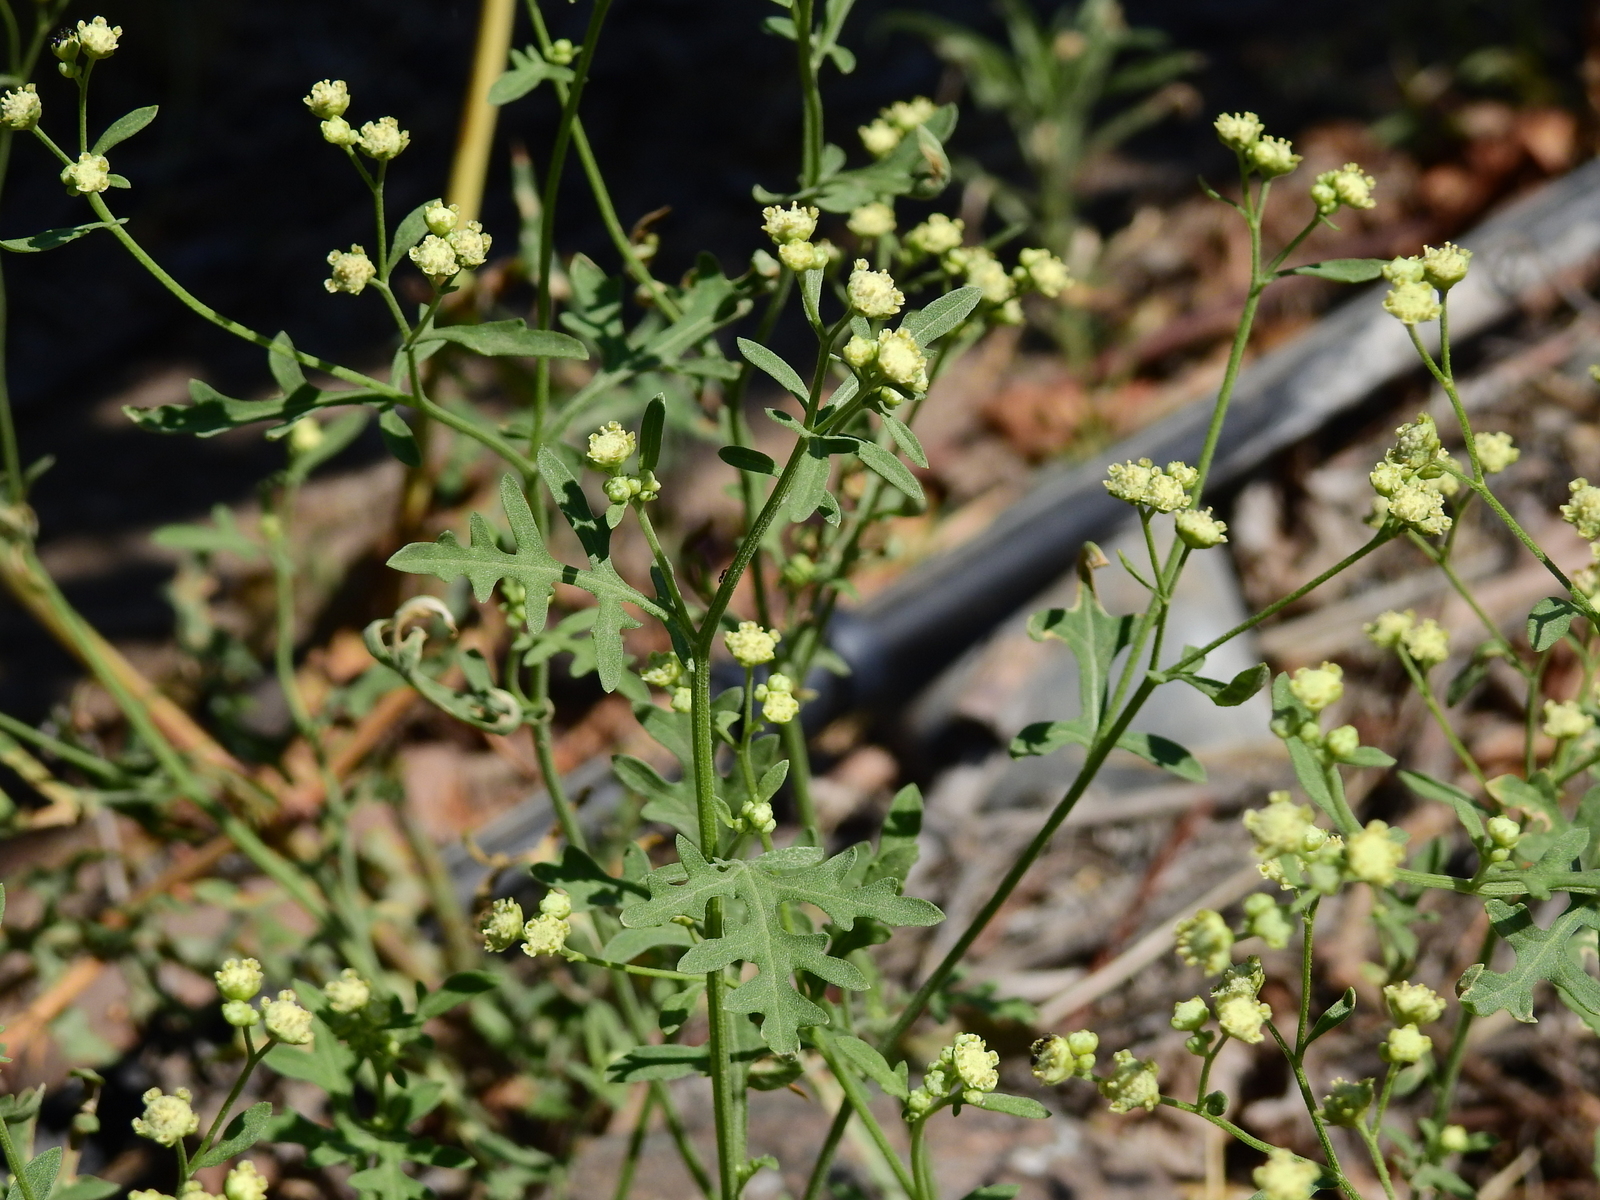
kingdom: Plantae
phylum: Tracheophyta
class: Magnoliopsida
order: Asterales
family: Asteraceae
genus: Parthenium
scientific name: Parthenium hysterophorus
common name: Santa maria feverfew
